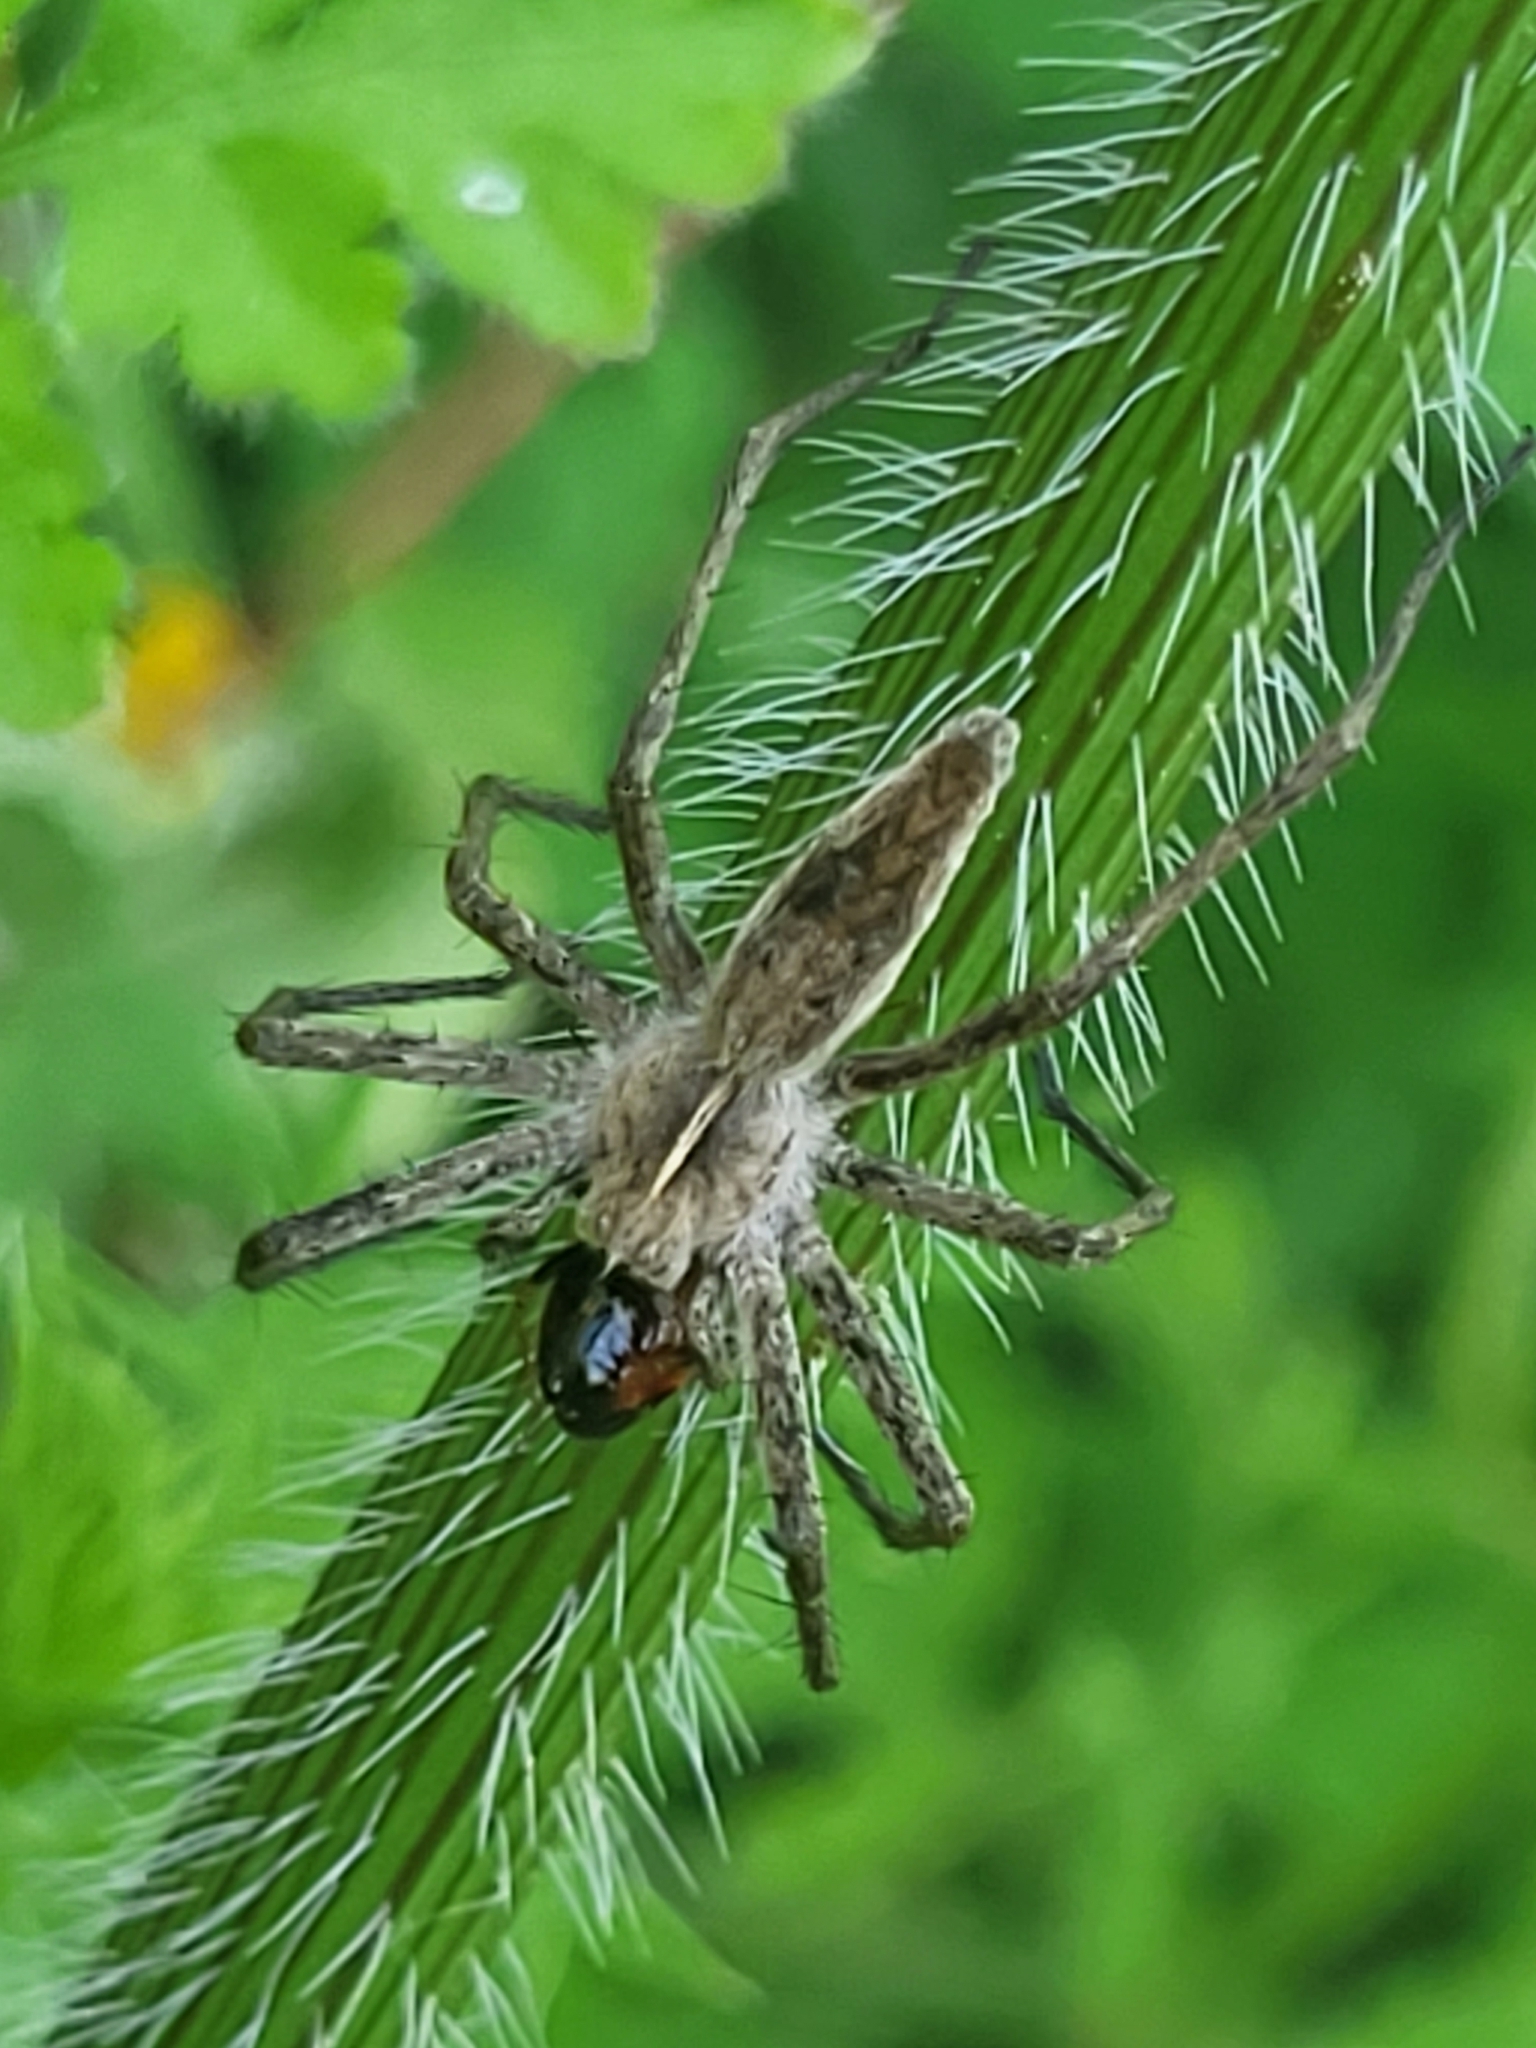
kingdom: Animalia
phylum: Arthropoda
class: Arachnida
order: Araneae
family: Pisauridae
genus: Pisaura
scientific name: Pisaura
